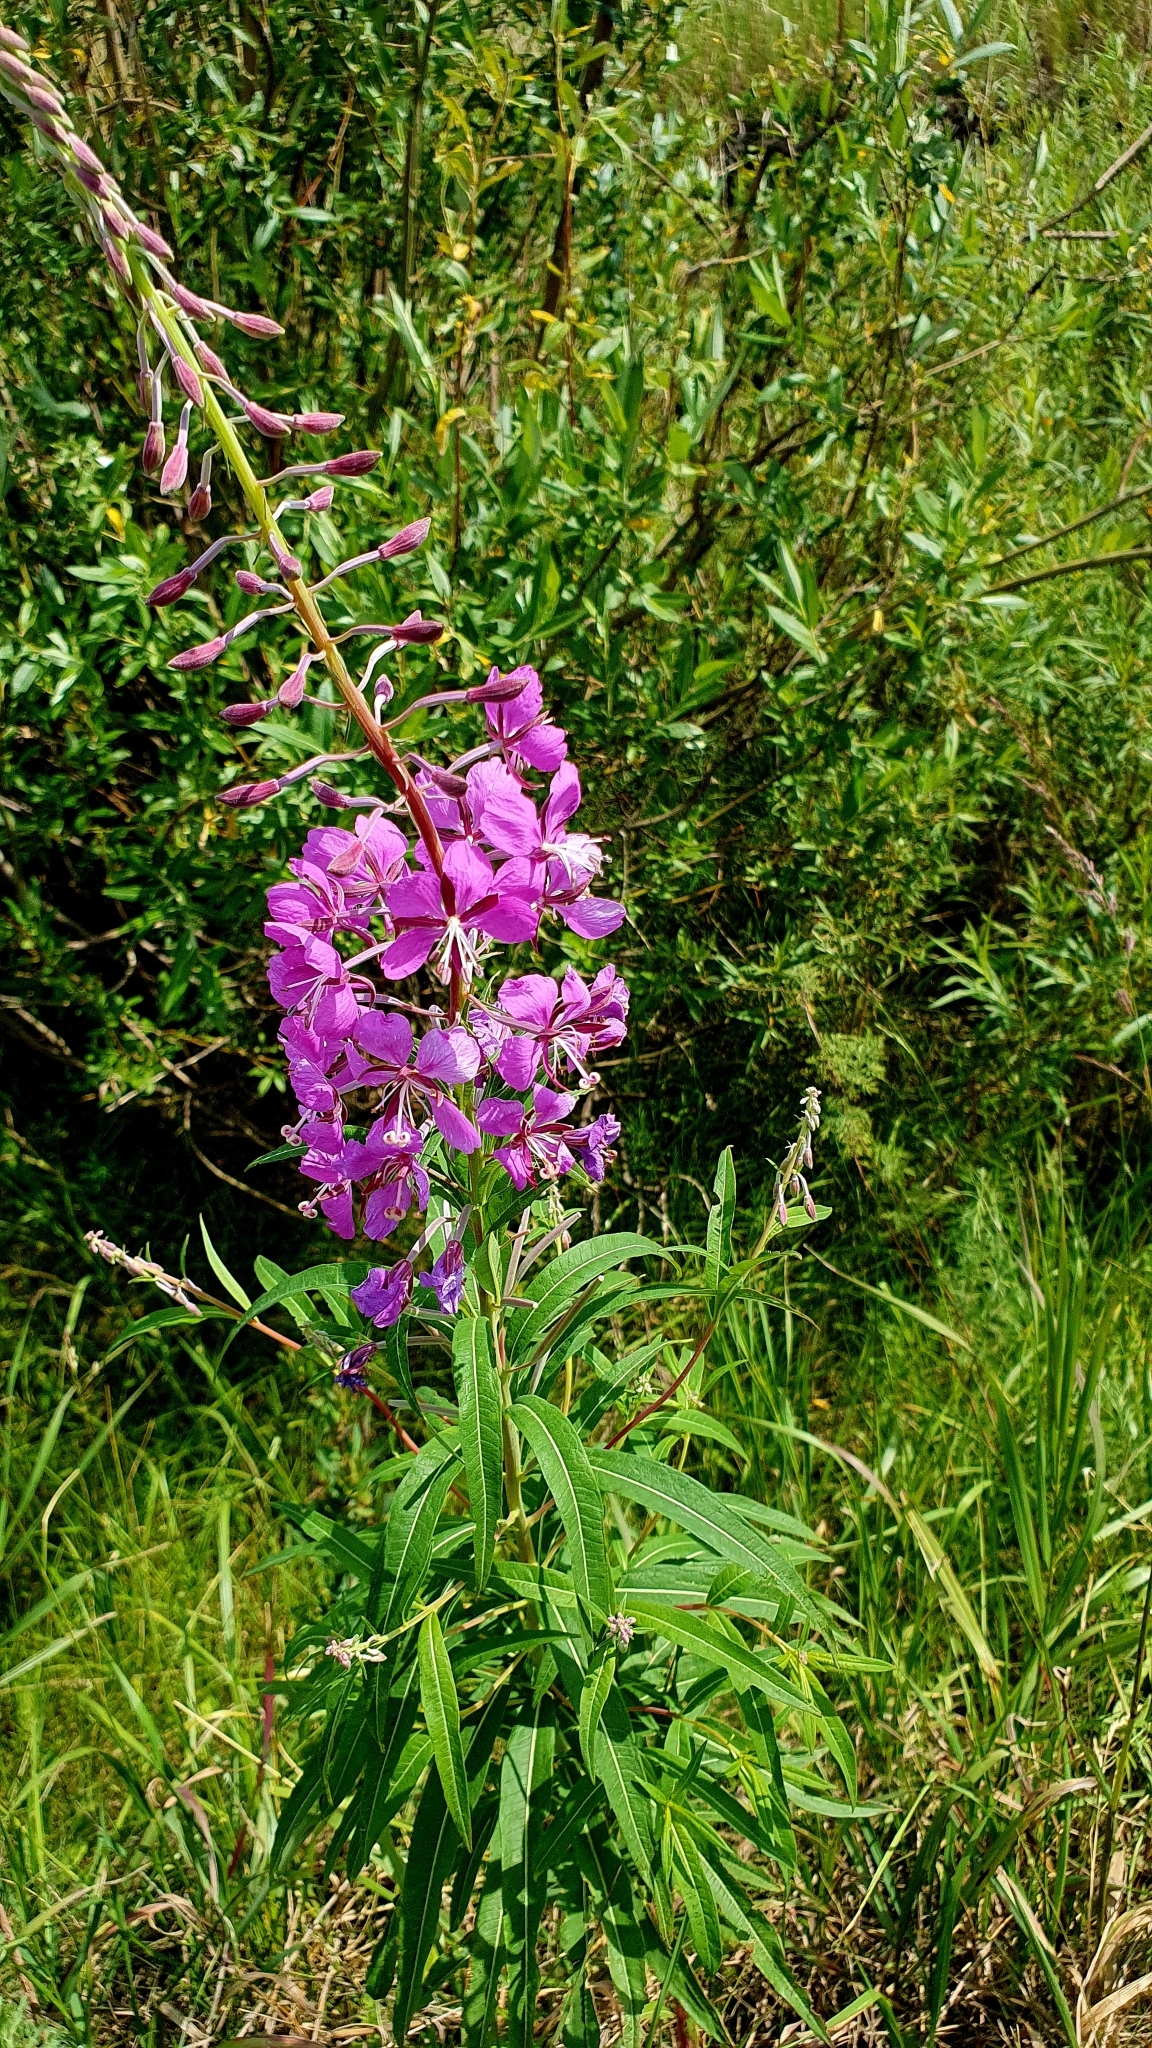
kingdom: Plantae
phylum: Tracheophyta
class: Magnoliopsida
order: Myrtales
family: Onagraceae
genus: Chamaenerion
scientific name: Chamaenerion angustifolium
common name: Fireweed
